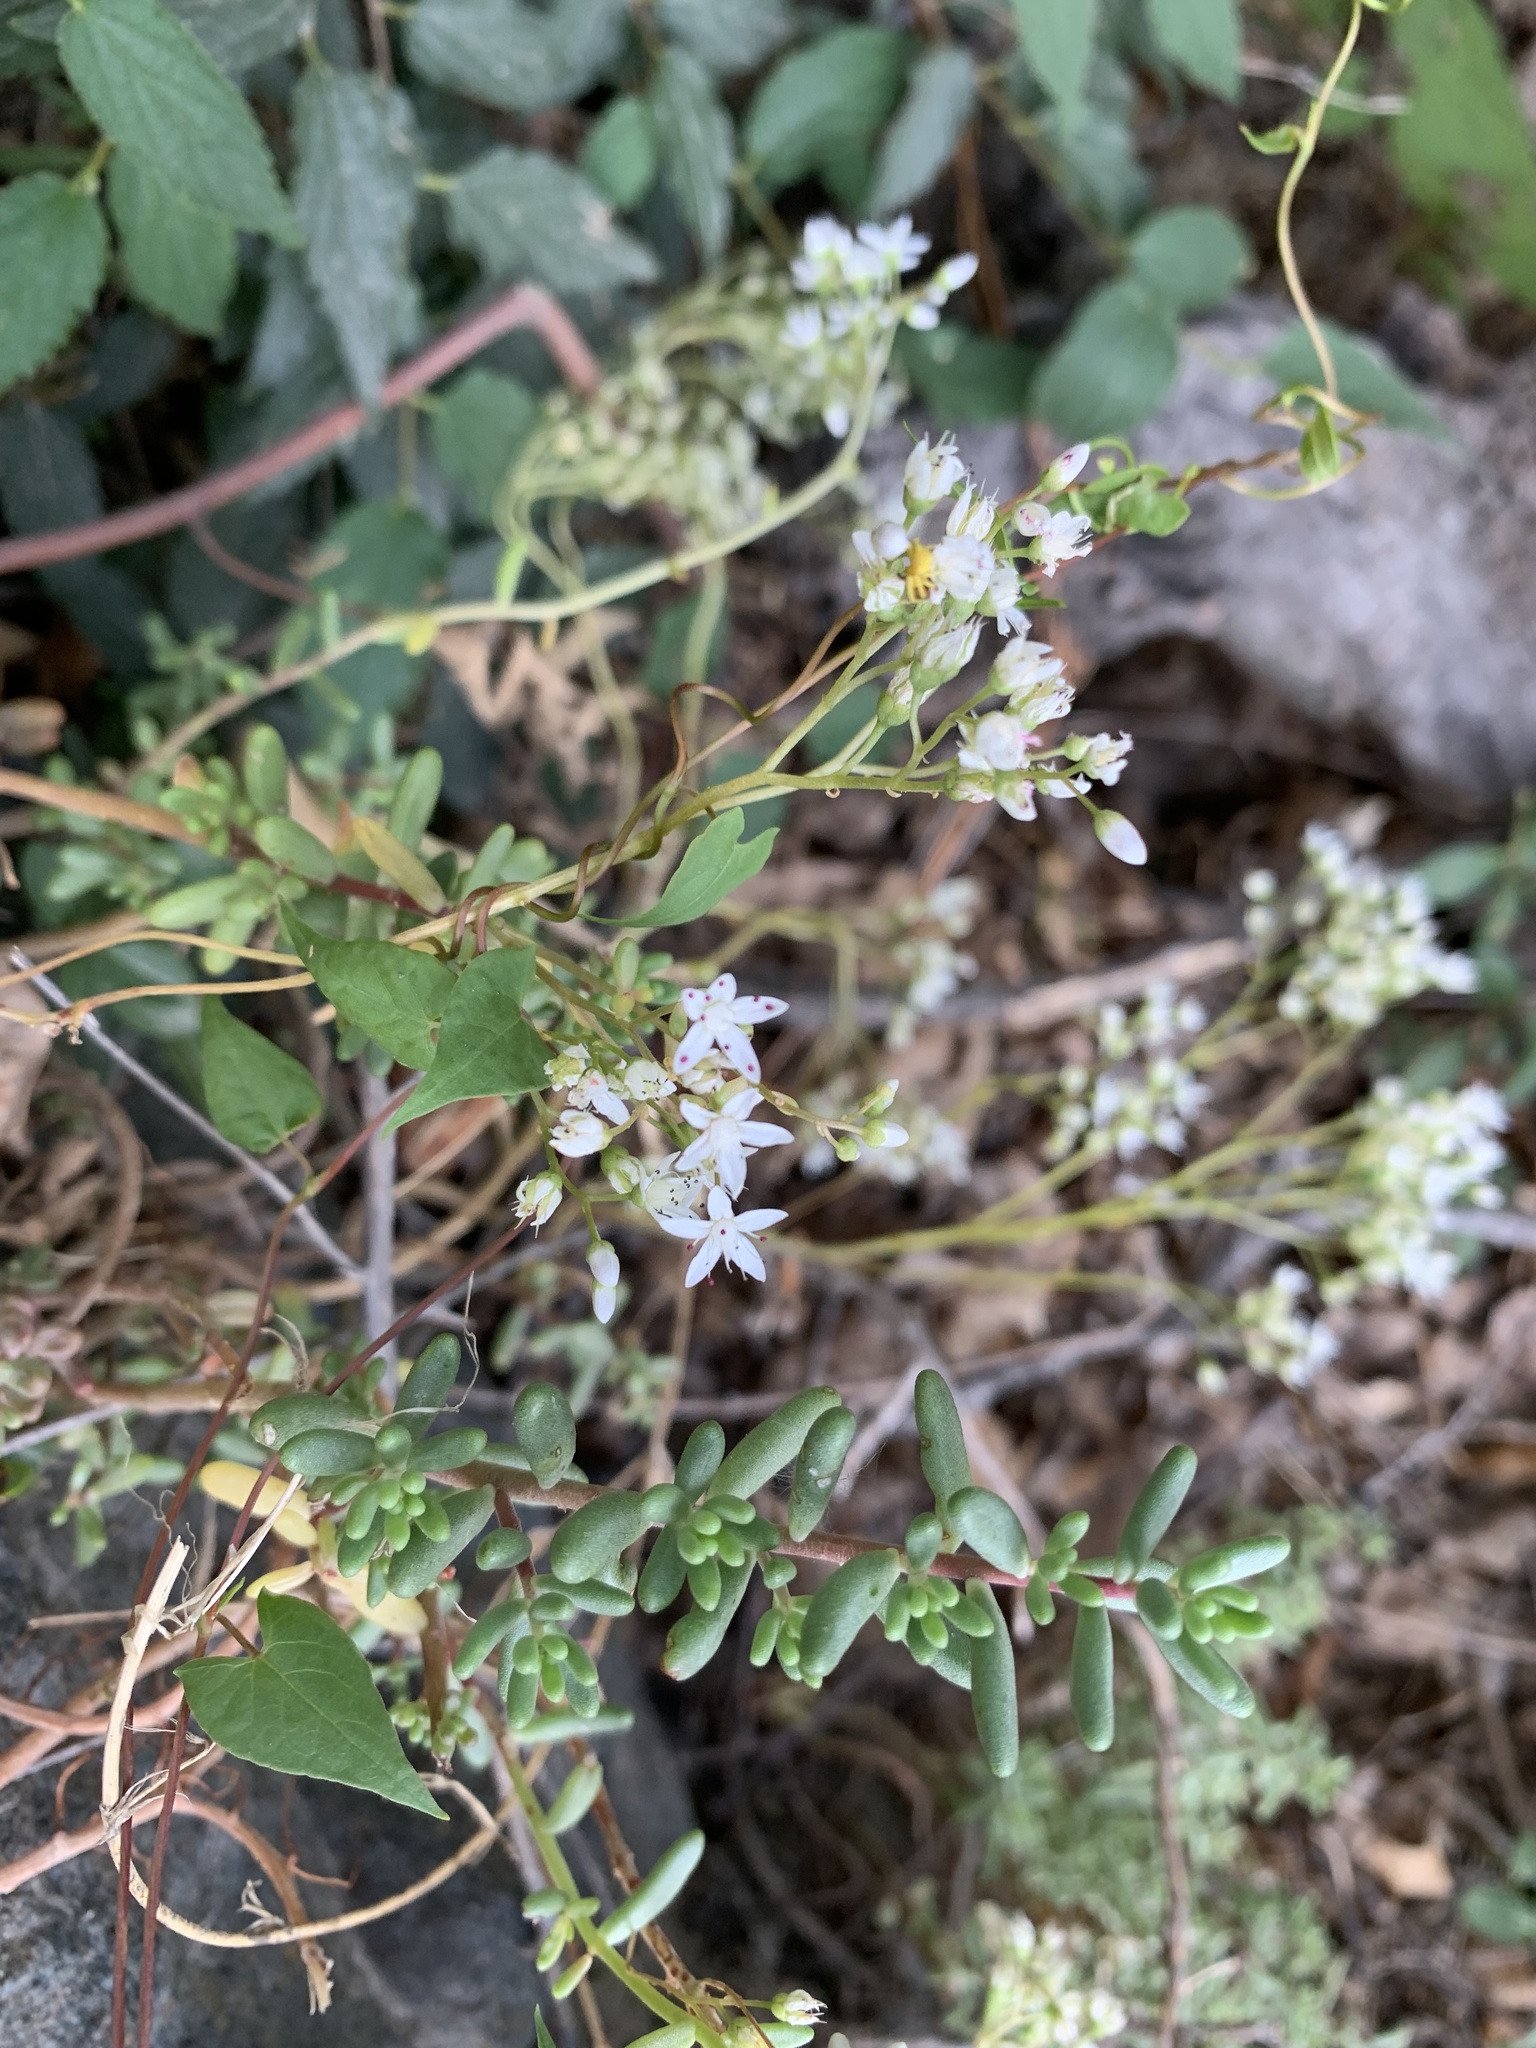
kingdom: Plantae
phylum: Tracheophyta
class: Magnoliopsida
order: Saxifragales
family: Crassulaceae
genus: Sedum
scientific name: Sedum album
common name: White stonecrop
